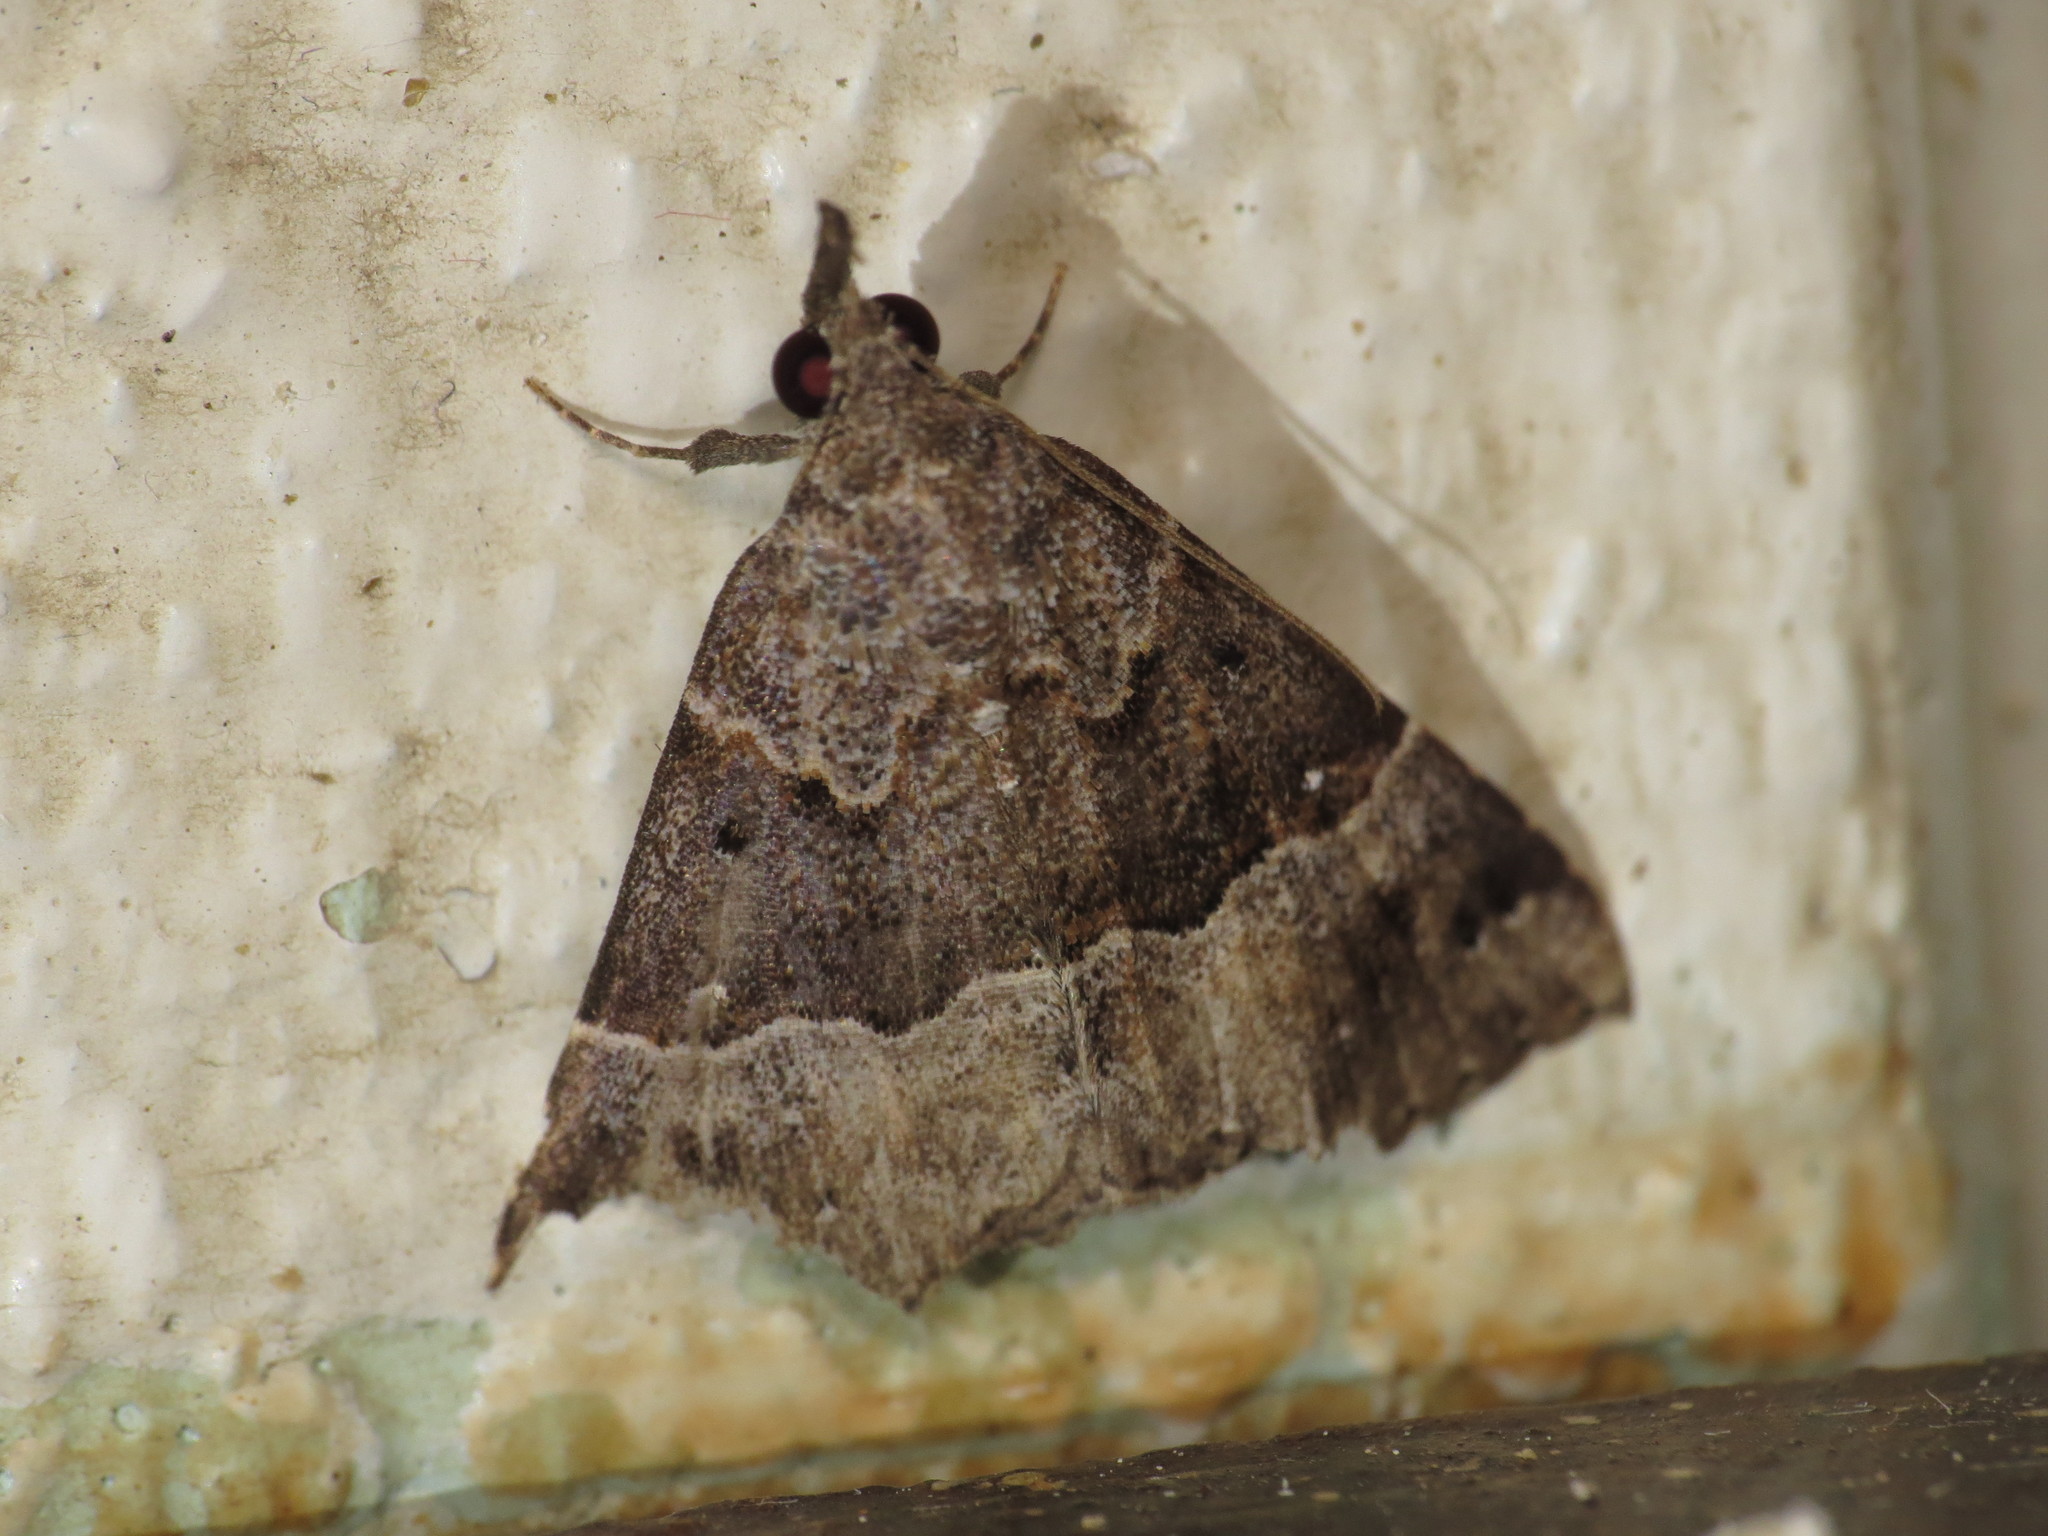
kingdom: Animalia
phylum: Arthropoda
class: Insecta
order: Lepidoptera
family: Erebidae
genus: Hypena
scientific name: Hypena euryzostra
